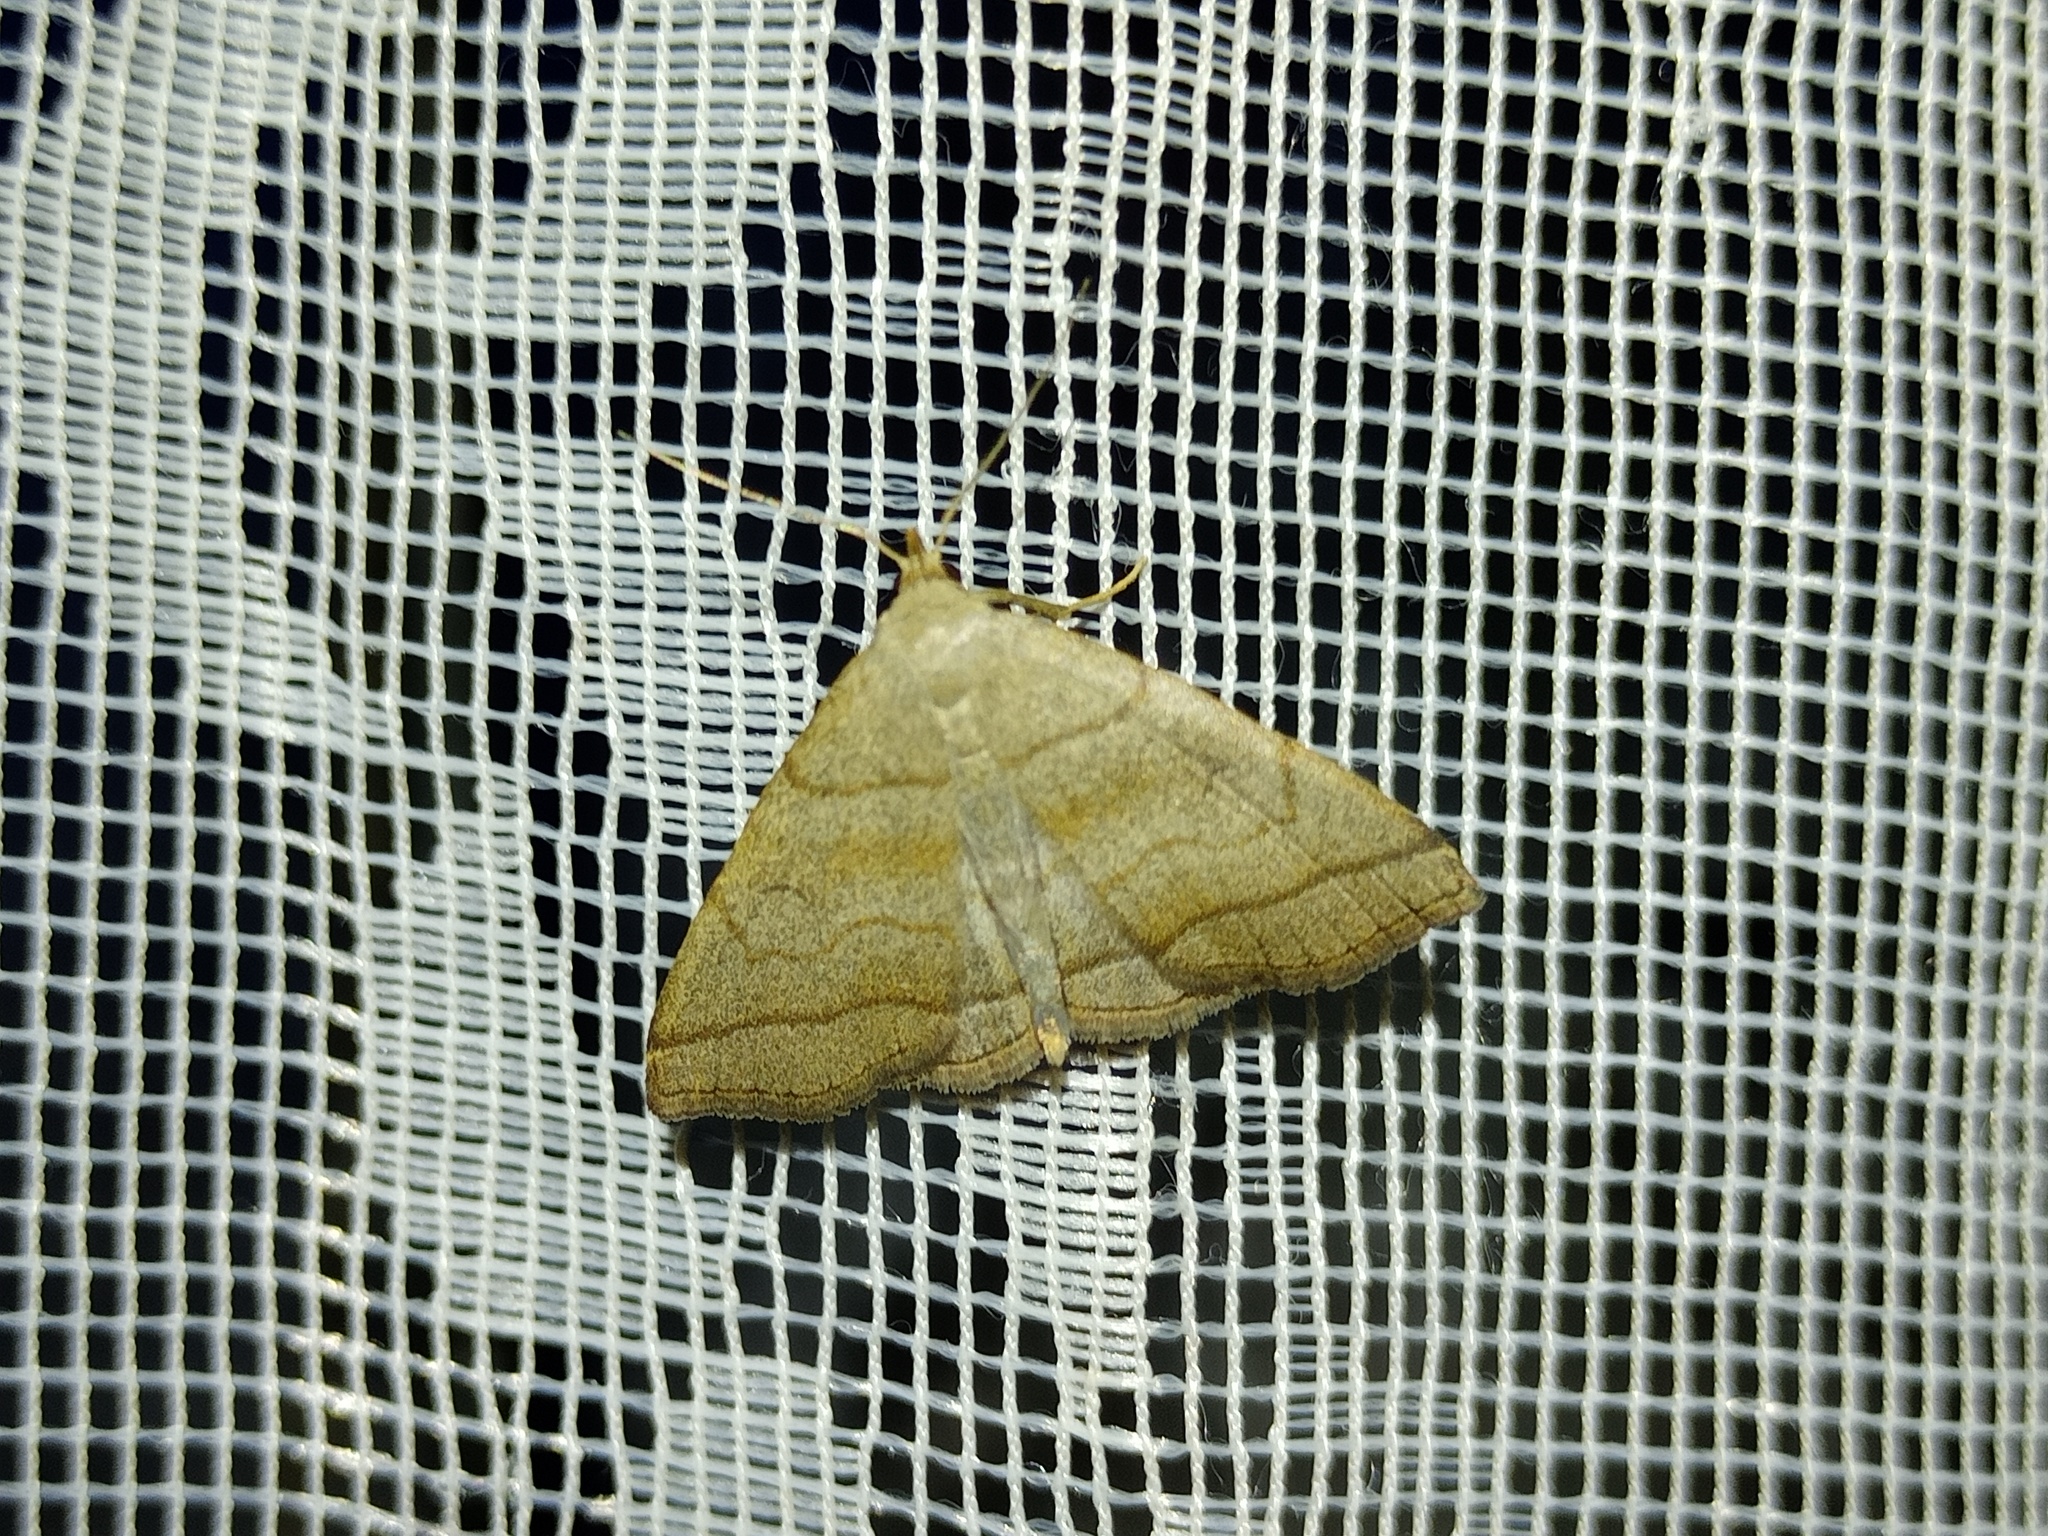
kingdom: Animalia
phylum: Arthropoda
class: Insecta
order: Lepidoptera
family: Erebidae
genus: Herminia
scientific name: Herminia tarsicrinalis
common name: Shaded fan-foot
